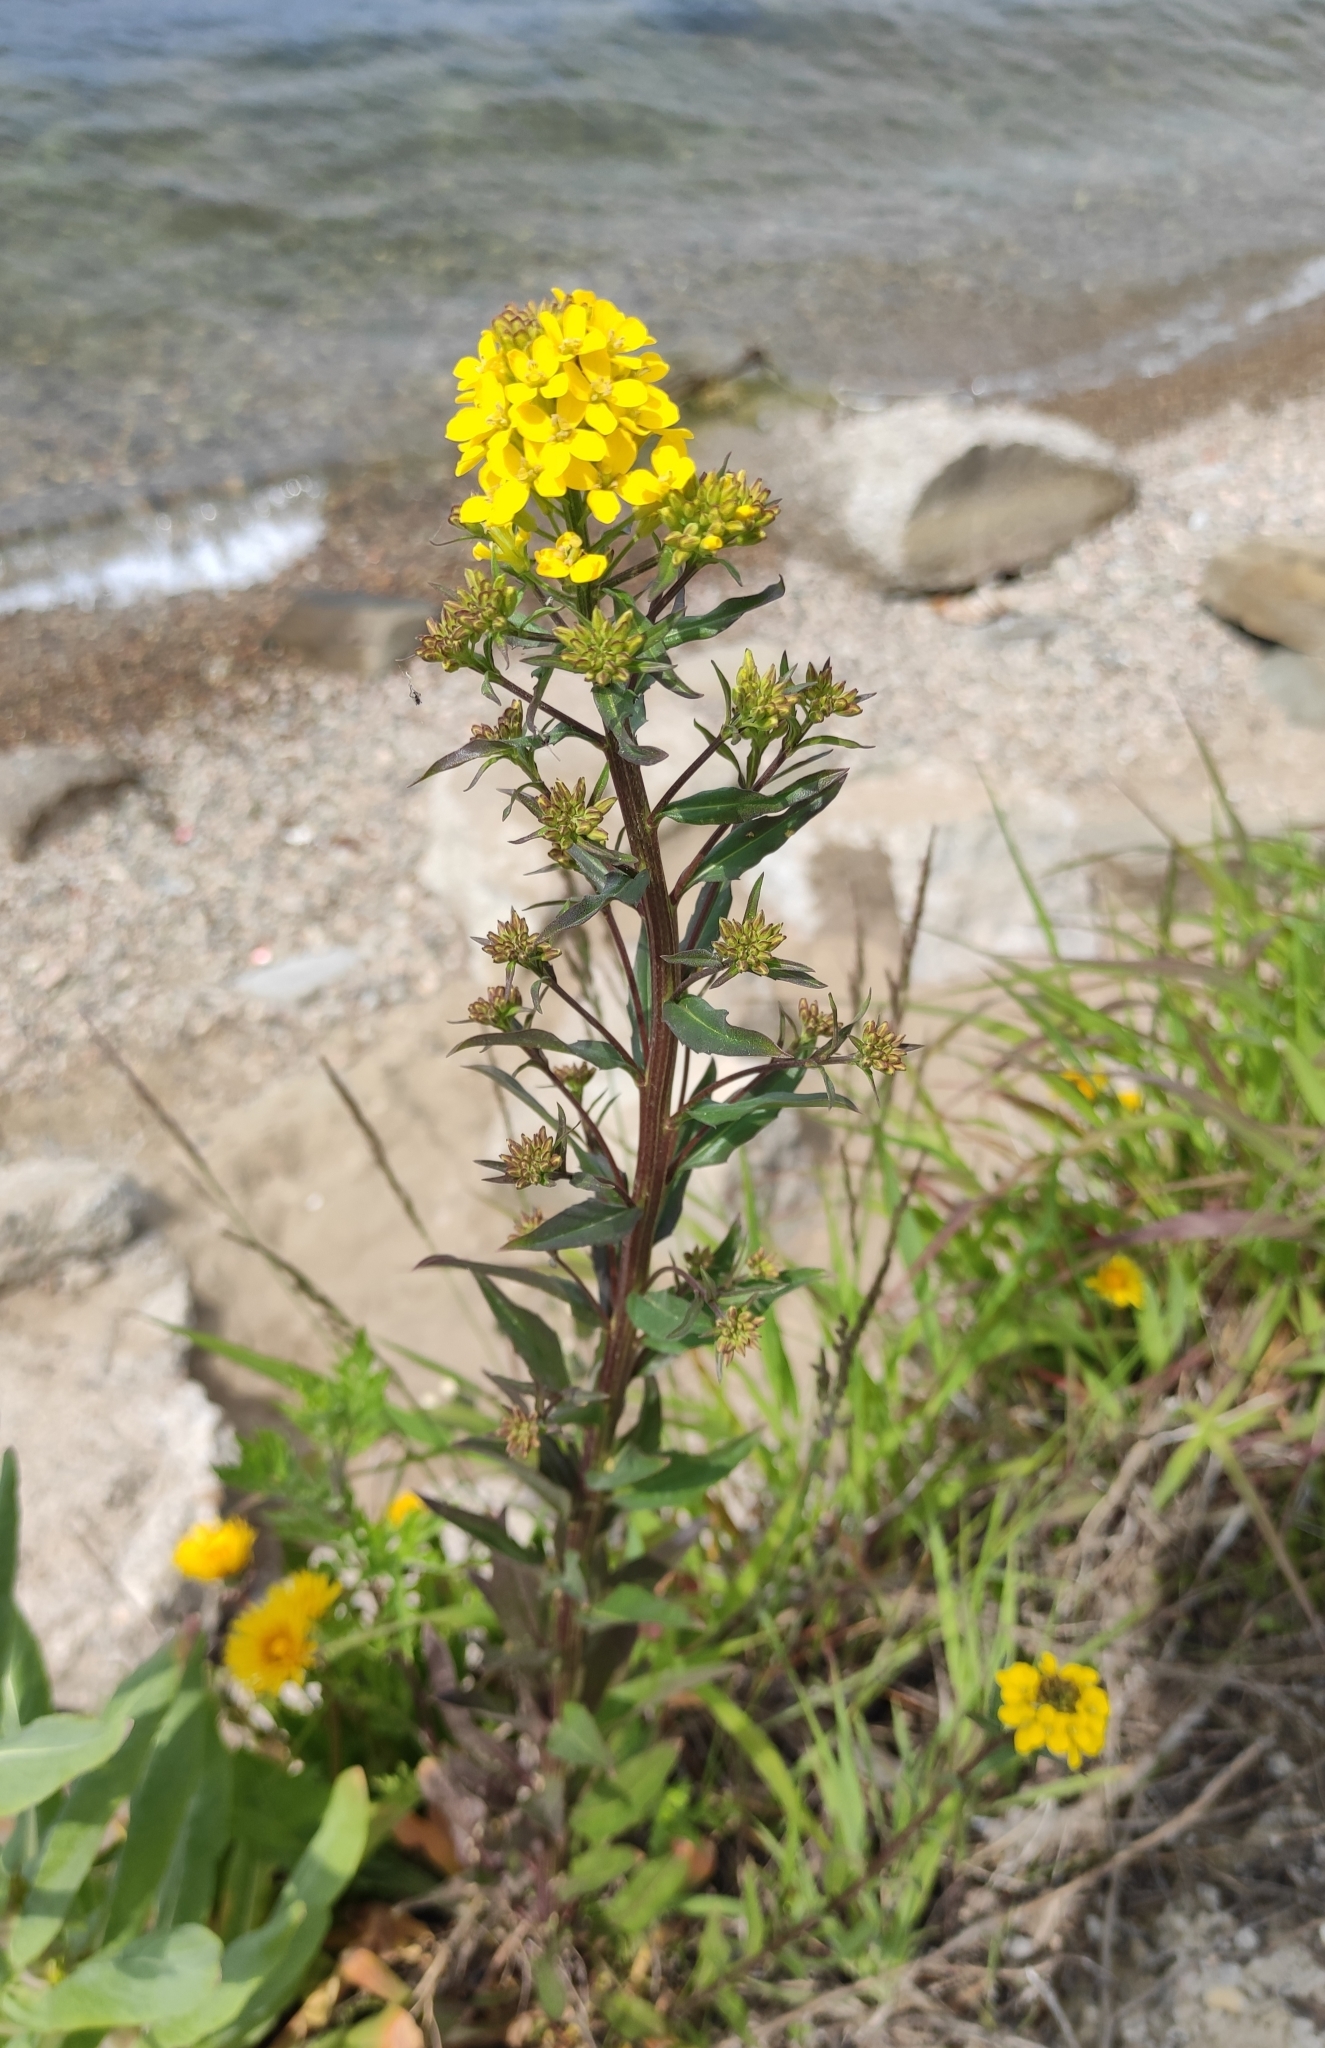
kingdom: Plantae
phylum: Tracheophyta
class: Magnoliopsida
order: Brassicales
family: Brassicaceae
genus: Erysimum
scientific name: Erysimum hieraciifolium
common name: European wallflower
